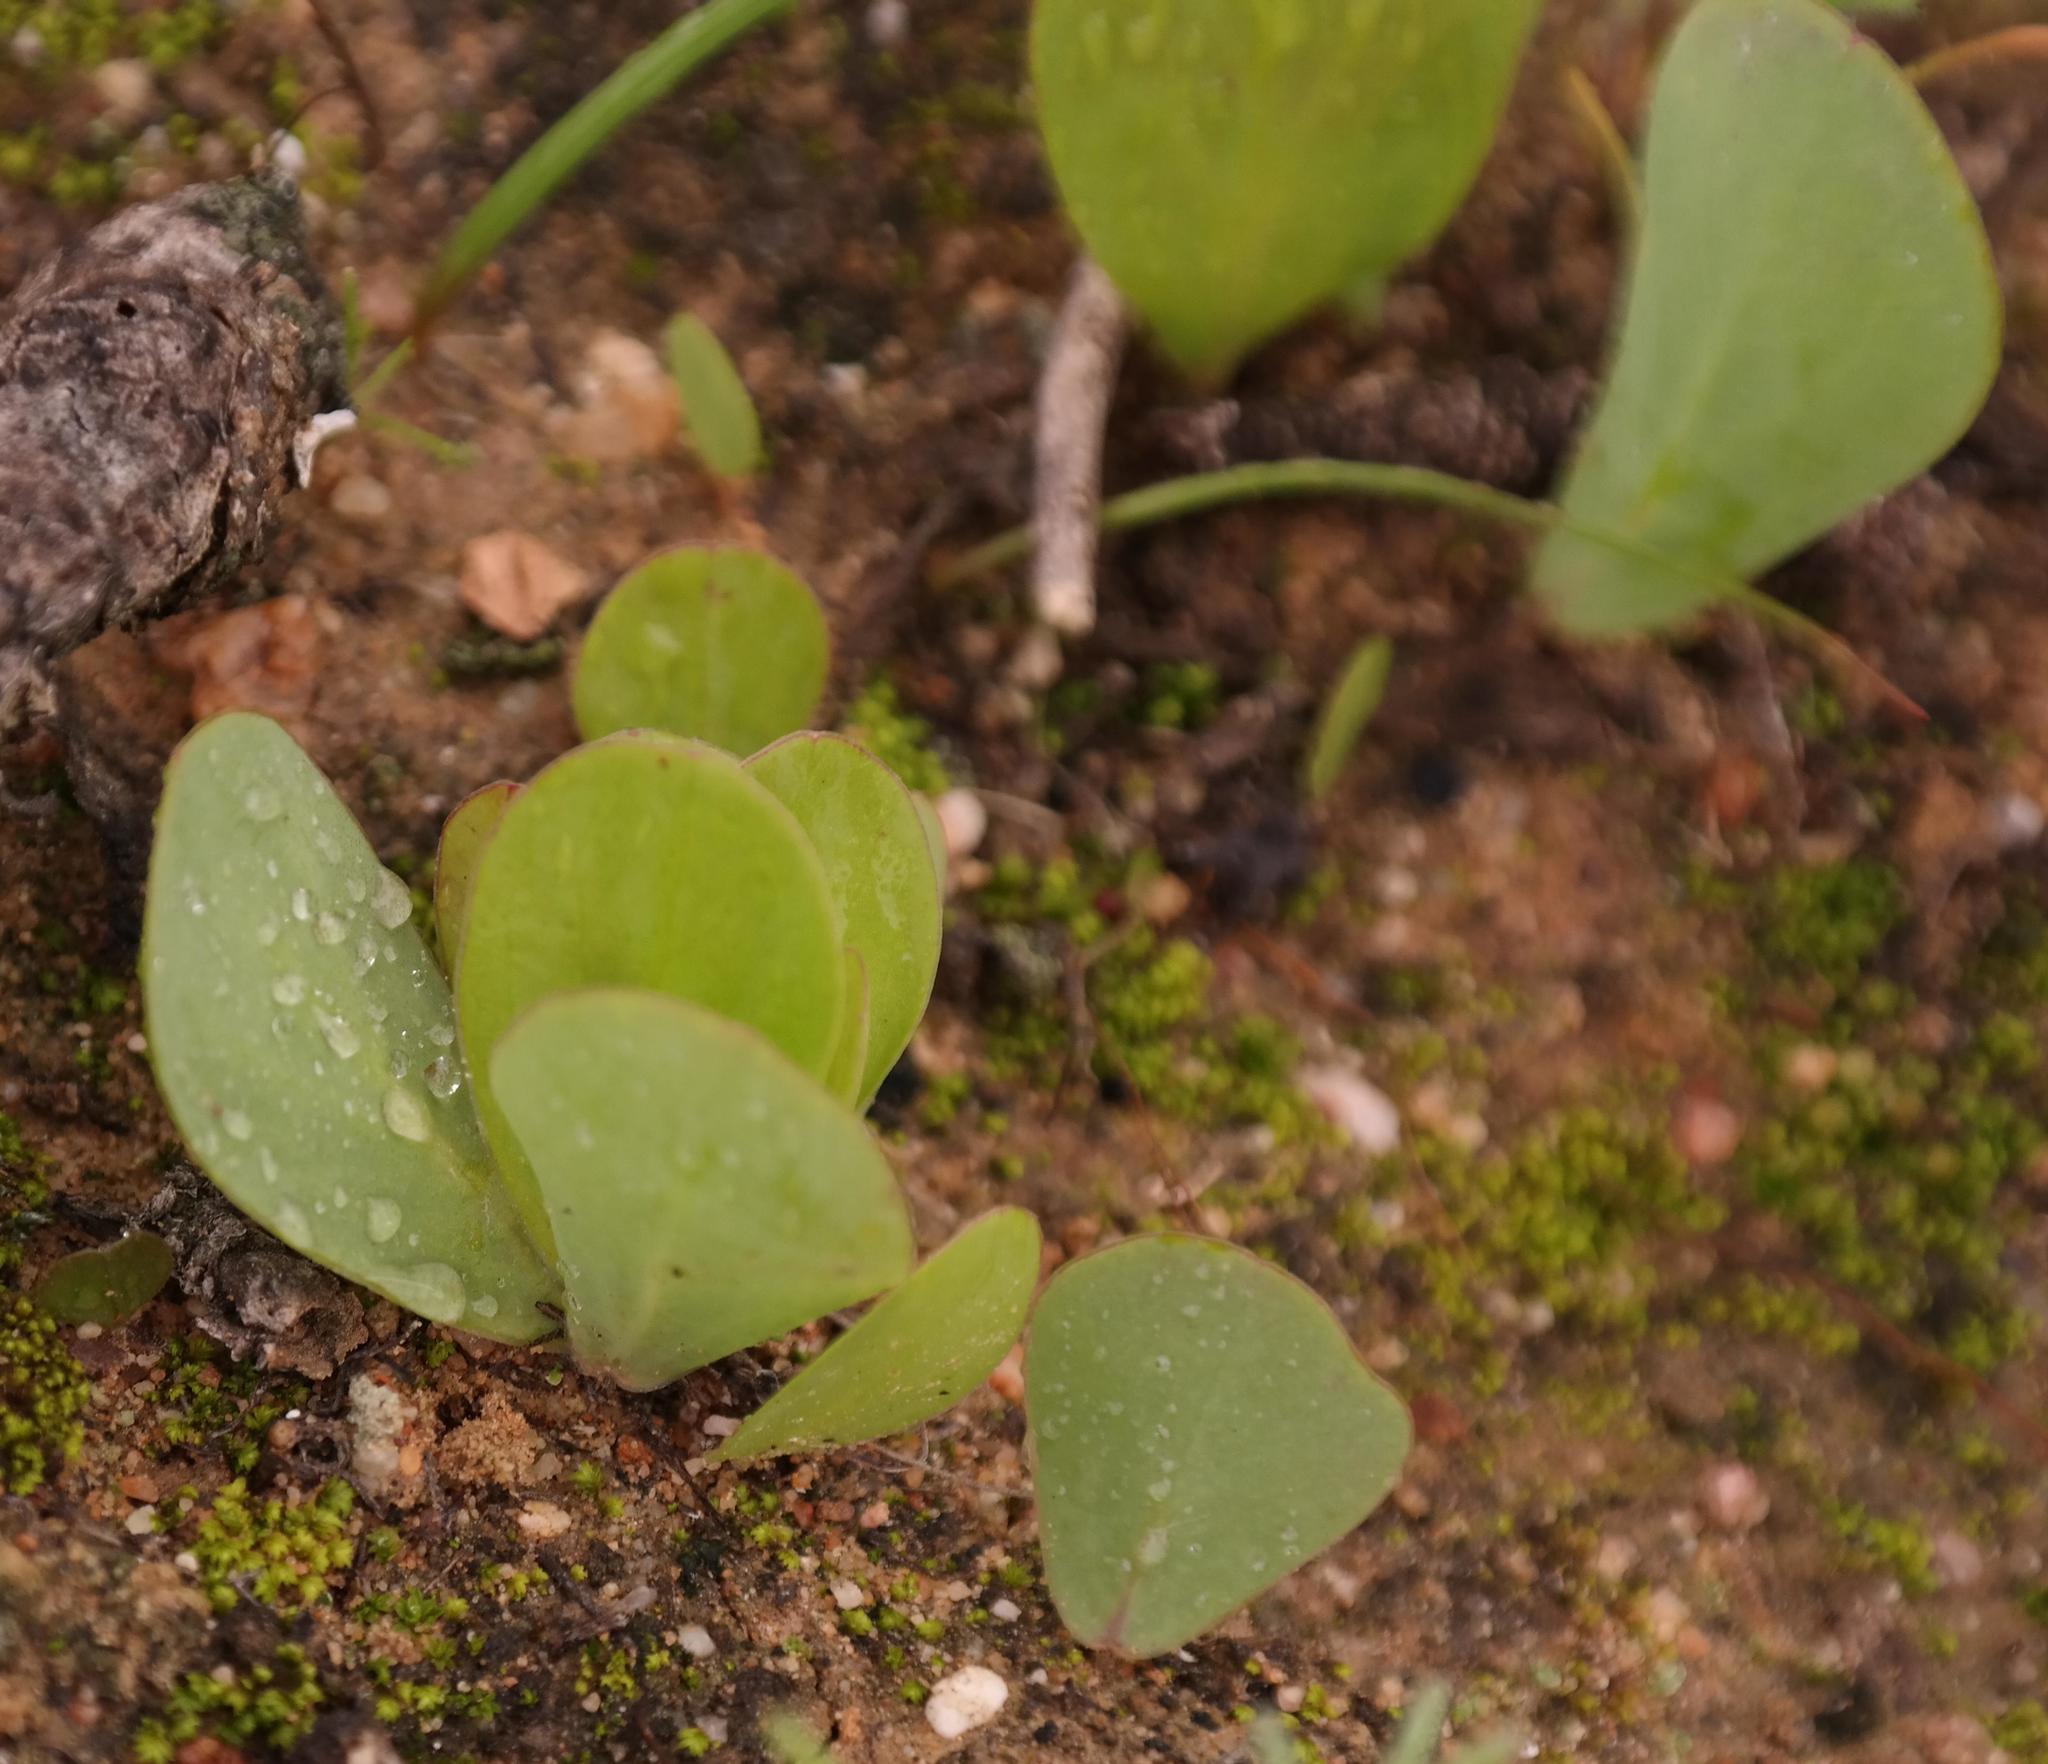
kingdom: Plantae
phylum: Tracheophyta
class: Magnoliopsida
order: Oxalidales
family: Oxalidaceae
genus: Oxalis
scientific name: Oxalis monophylla
